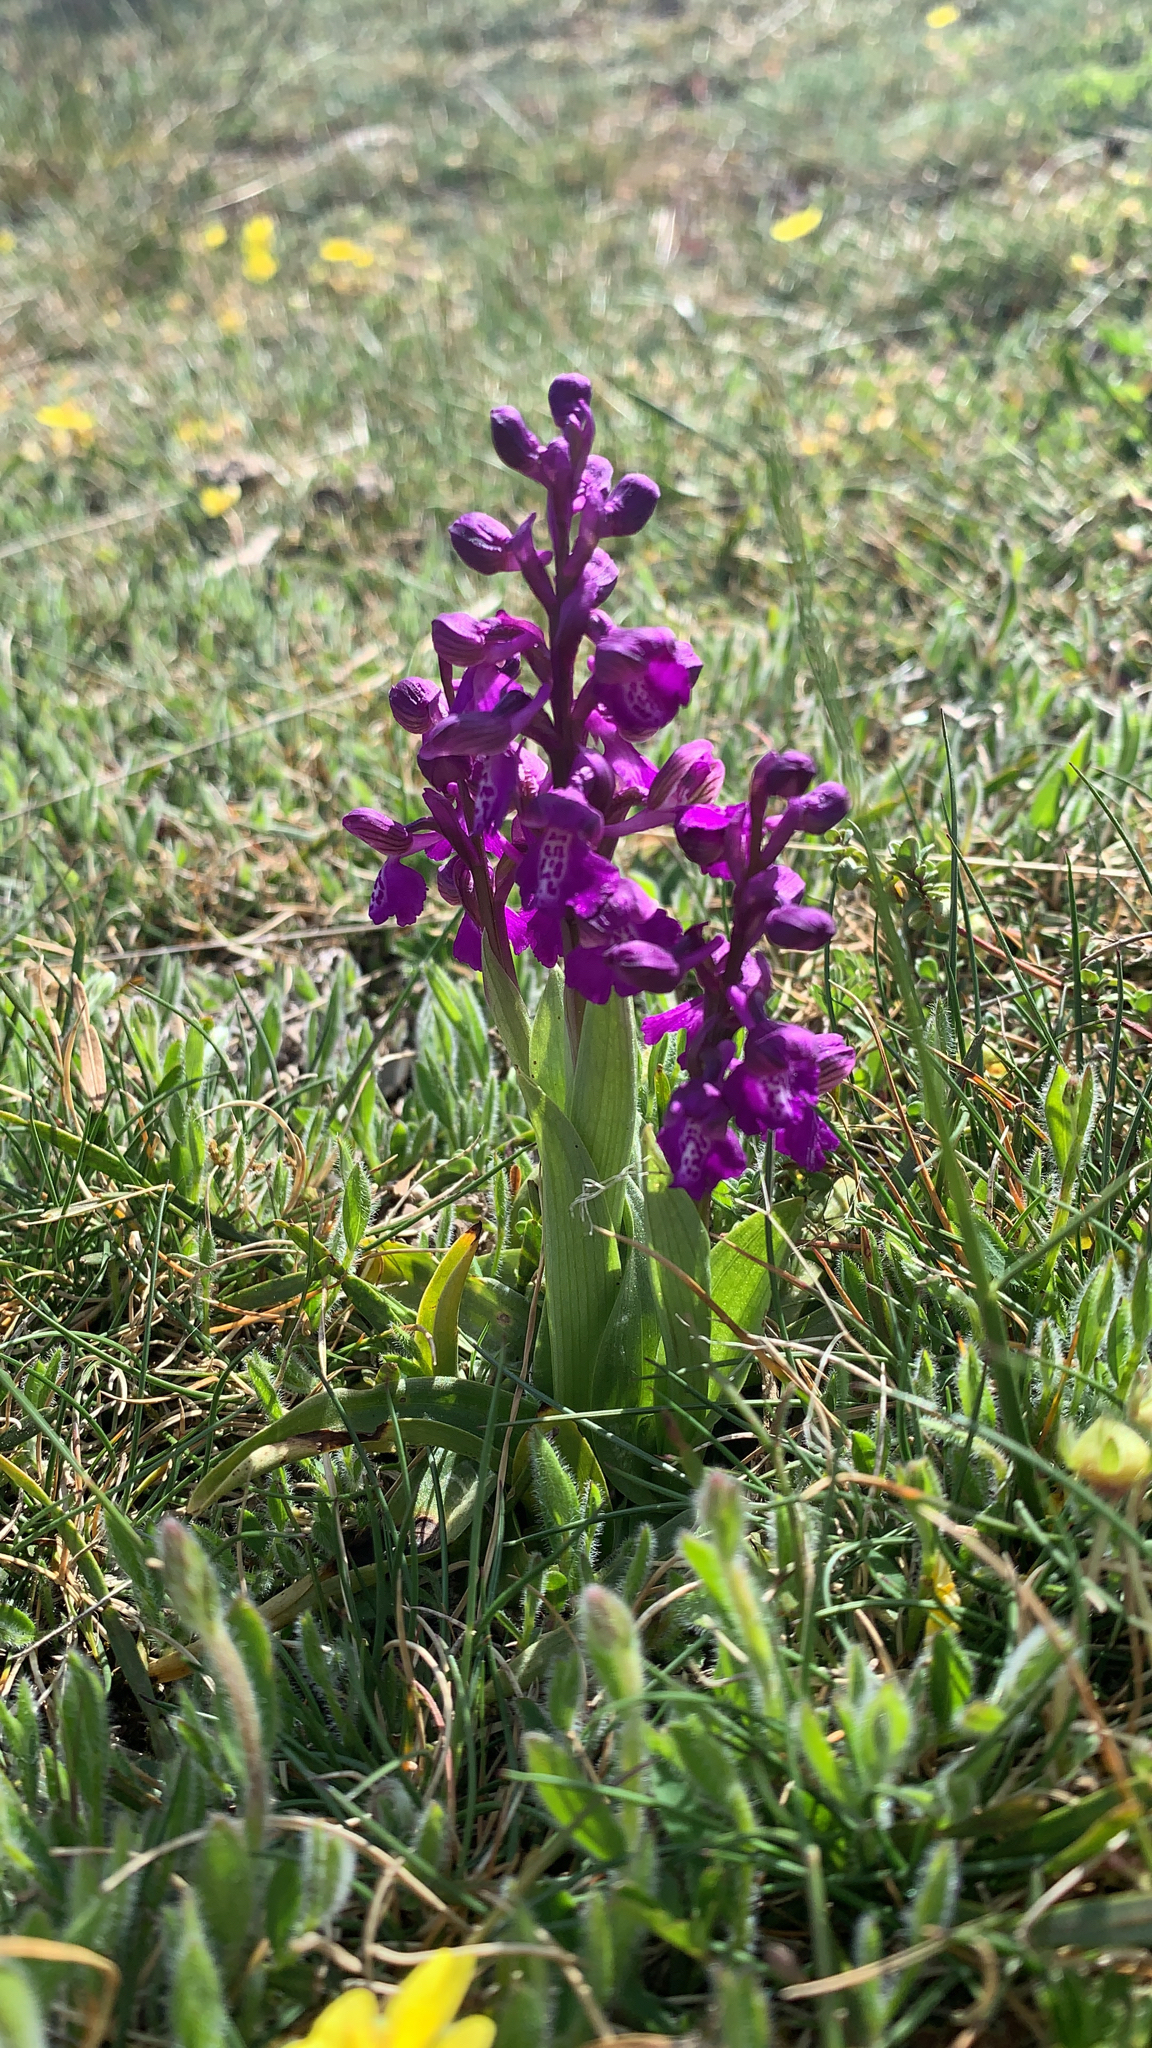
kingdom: Plantae
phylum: Tracheophyta
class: Liliopsida
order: Asparagales
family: Orchidaceae
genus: Anacamptis
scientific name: Anacamptis morio
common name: Green-winged orchid
